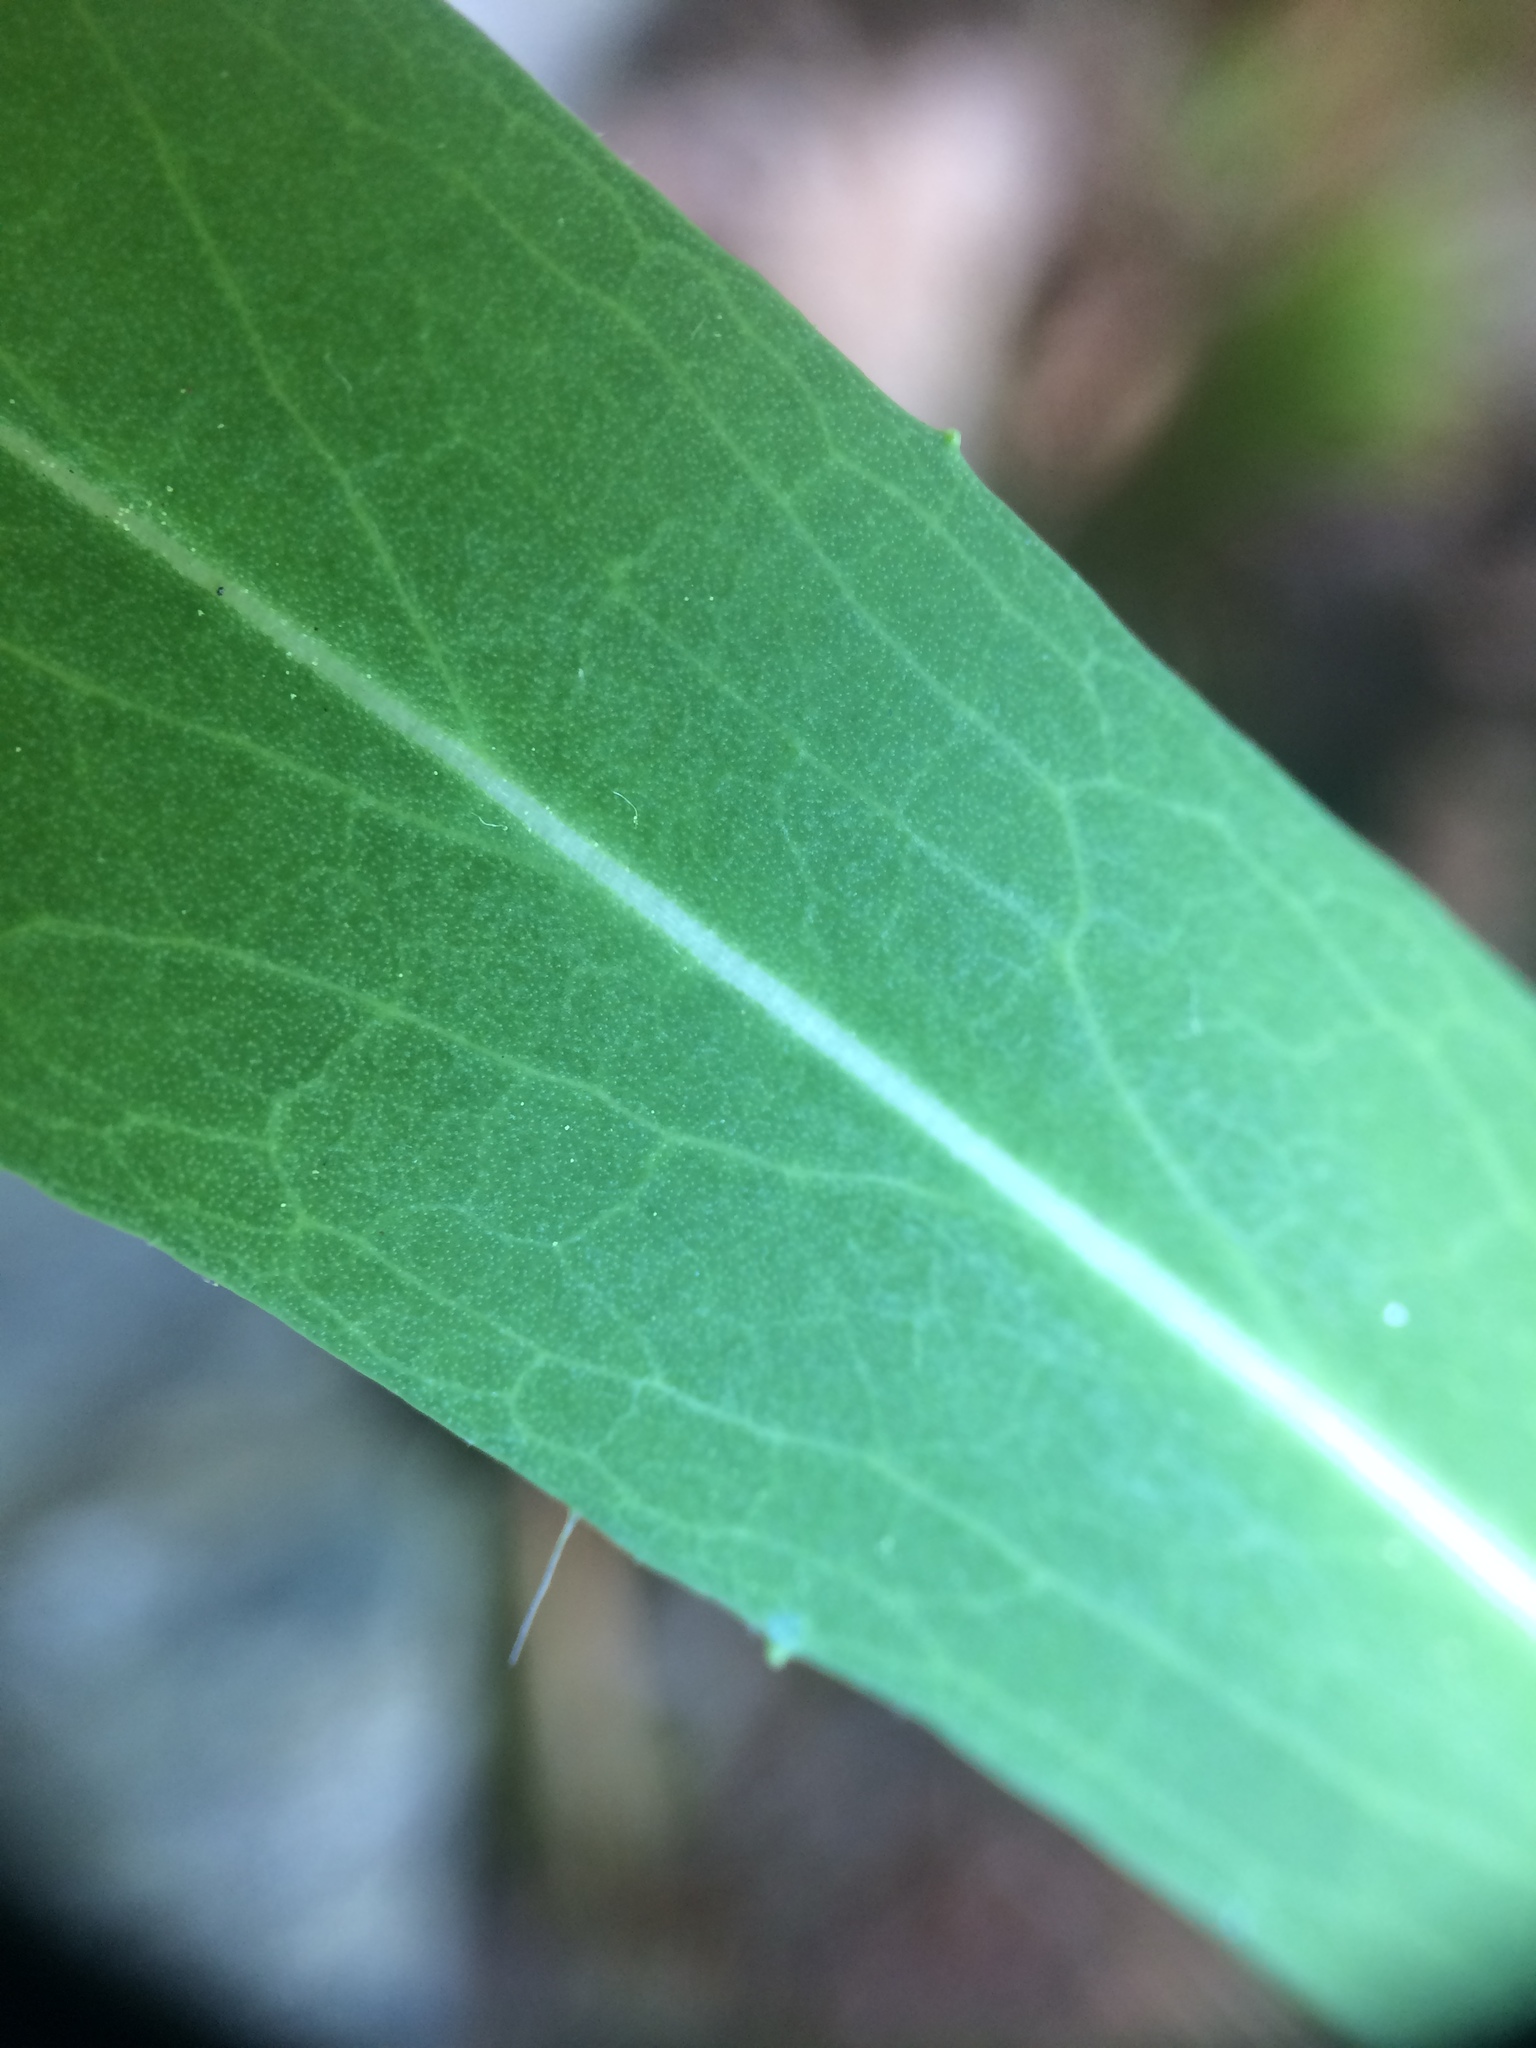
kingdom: Plantae
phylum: Tracheophyta
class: Magnoliopsida
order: Asterales
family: Asteraceae
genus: Pilosella
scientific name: Pilosella piloselloides
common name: Glaucous king-devil
